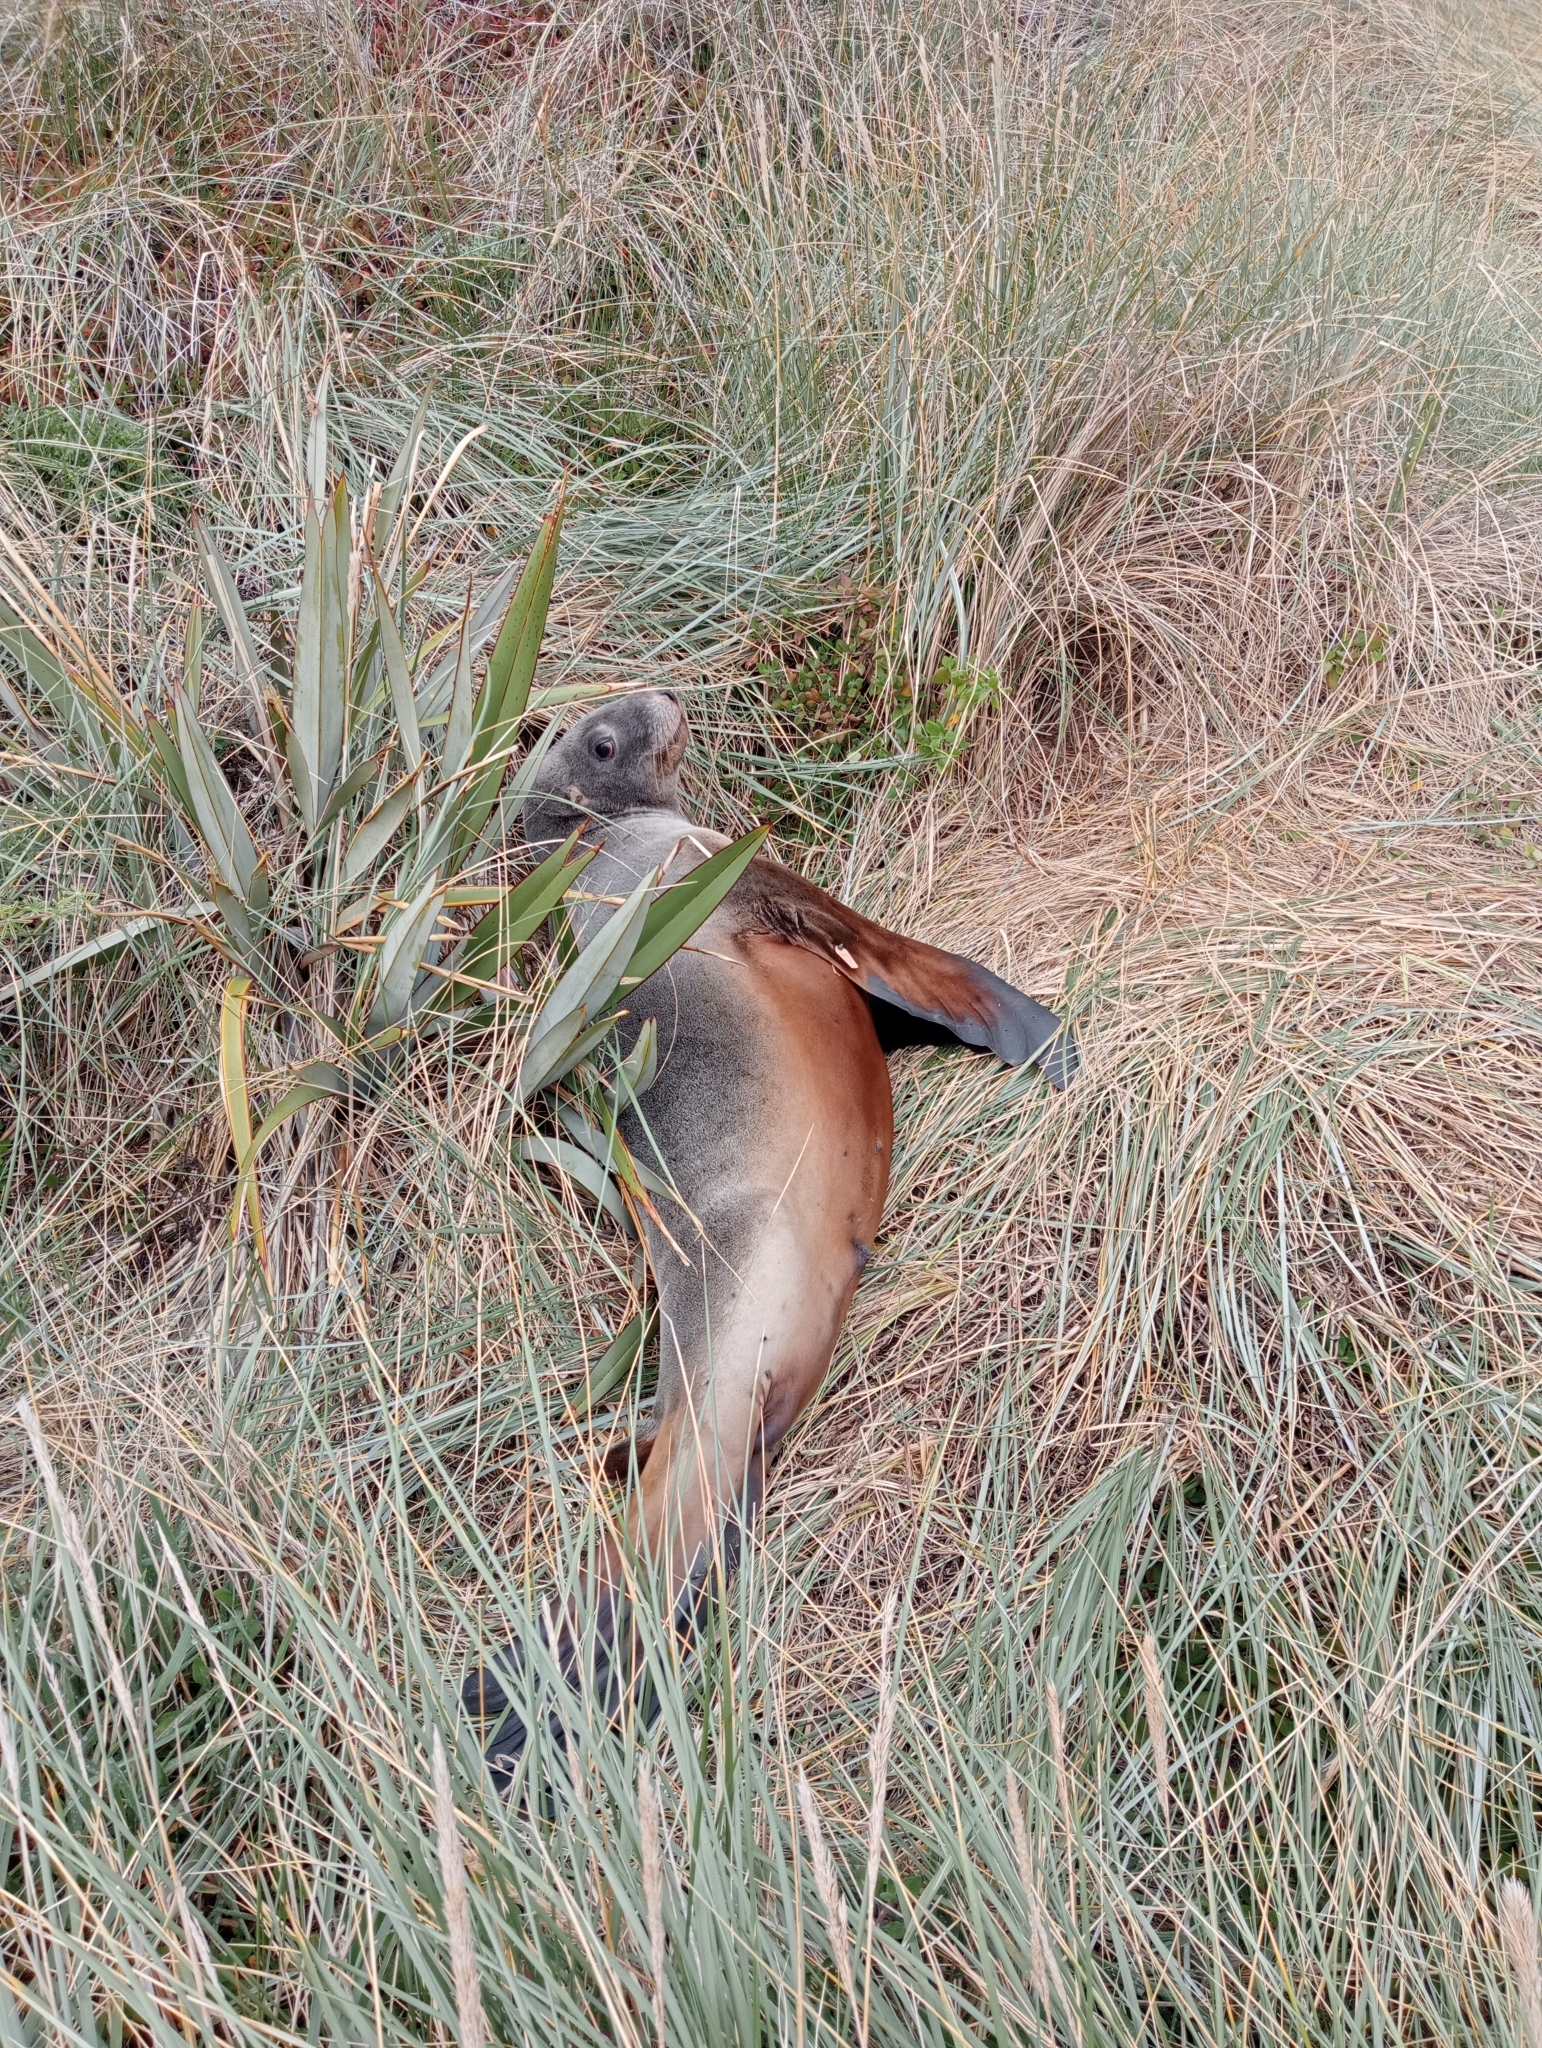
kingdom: Animalia
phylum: Chordata
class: Mammalia
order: Carnivora
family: Otariidae
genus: Phocarctos
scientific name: Phocarctos hookeri
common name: New zealand sea lion
